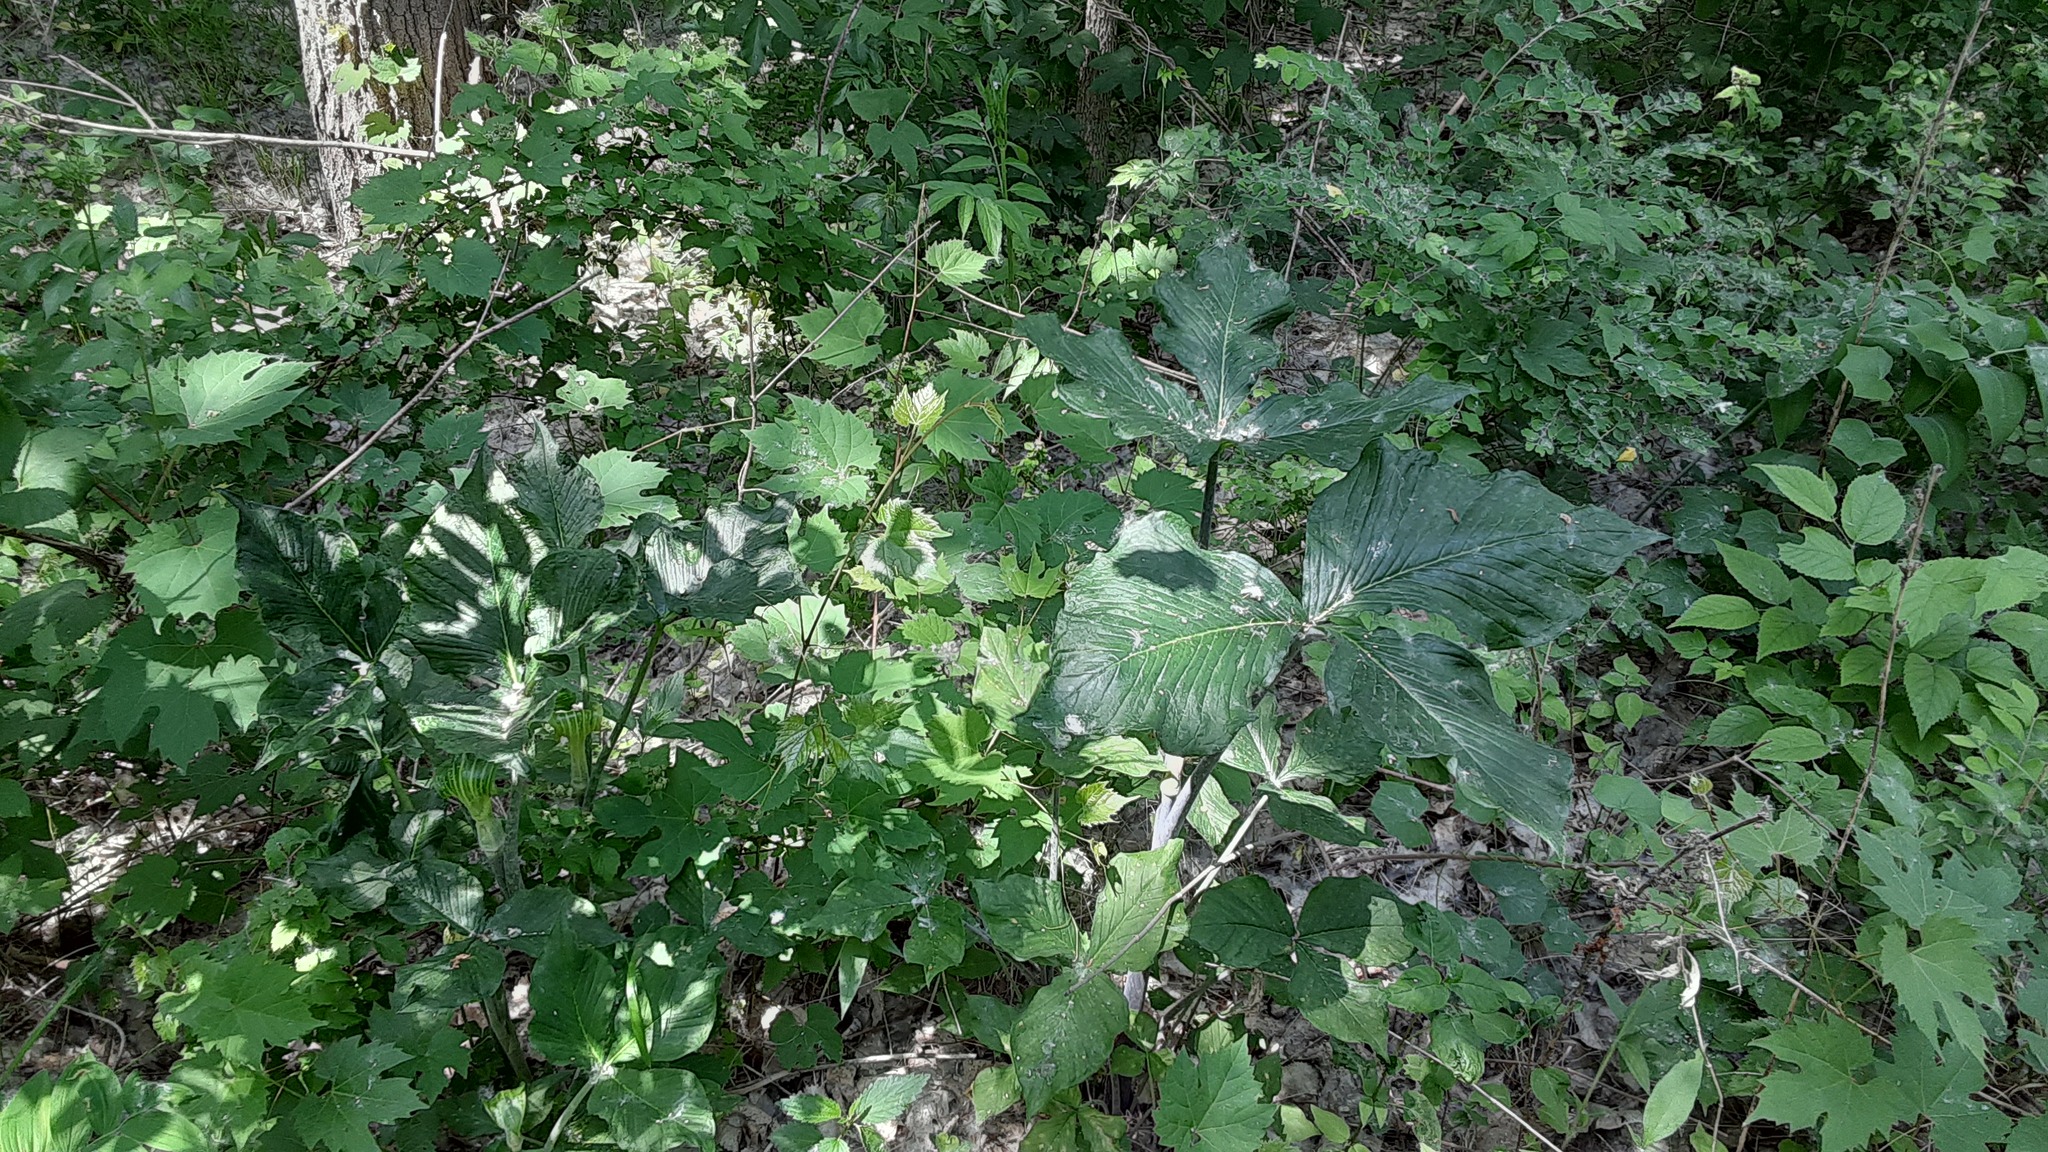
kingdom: Plantae
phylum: Tracheophyta
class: Liliopsida
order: Alismatales
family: Araceae
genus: Arisaema
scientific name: Arisaema triphyllum
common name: Jack-in-the-pulpit
